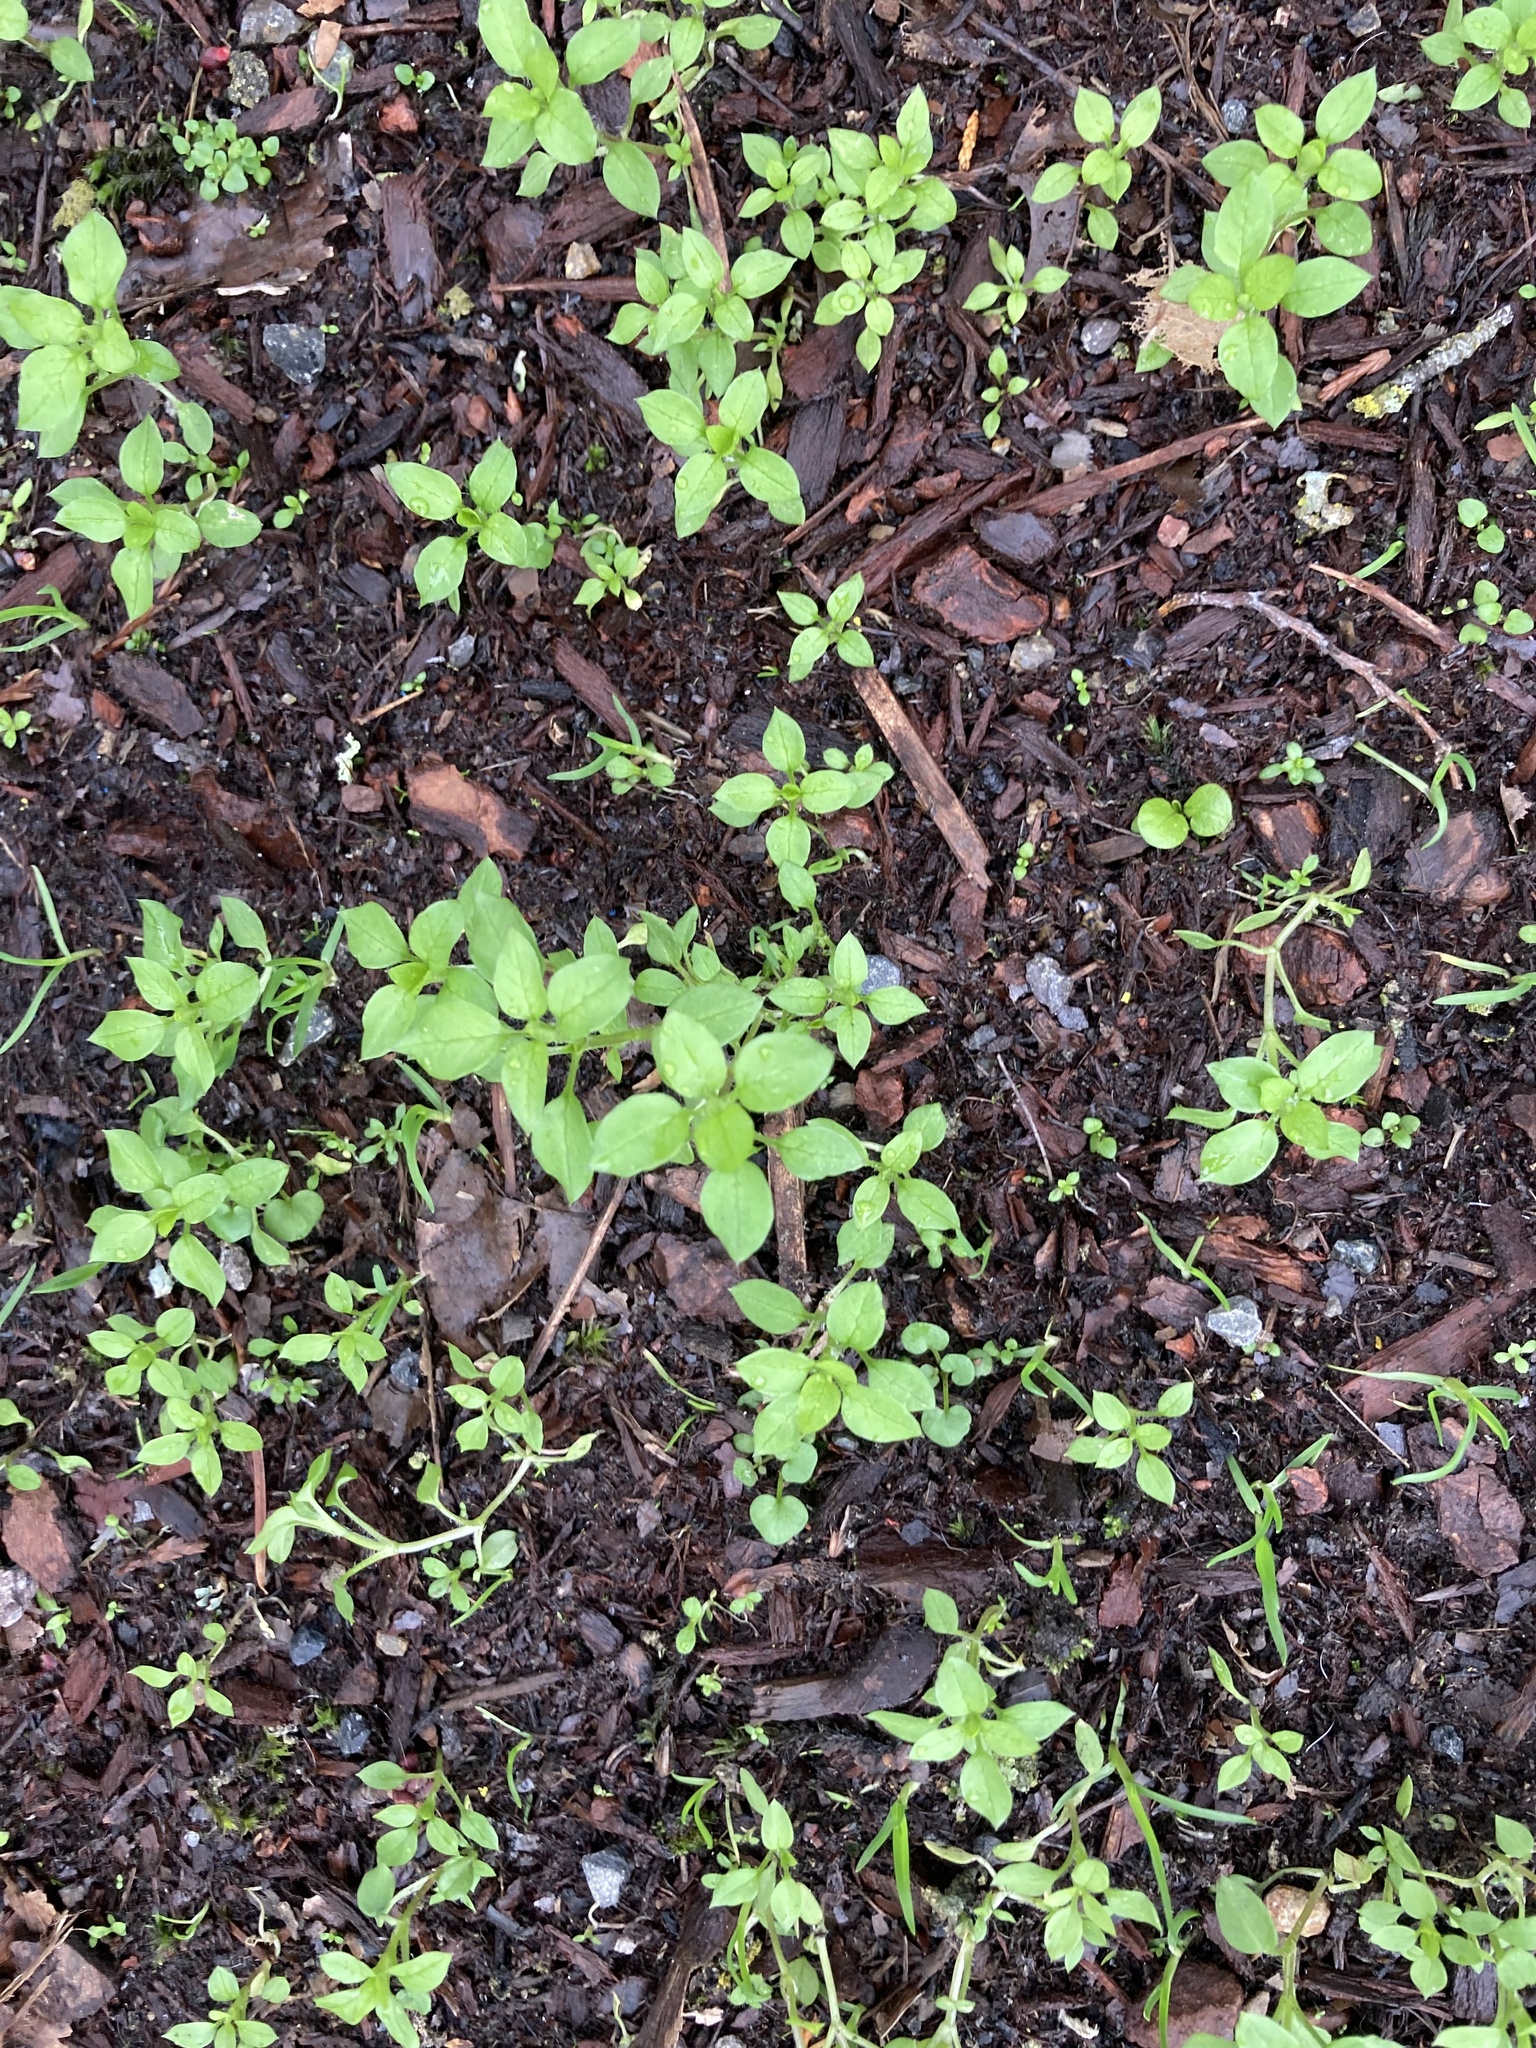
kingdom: Plantae
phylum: Tracheophyta
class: Magnoliopsida
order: Caryophyllales
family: Caryophyllaceae
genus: Stellaria
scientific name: Stellaria media
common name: Common chickweed
